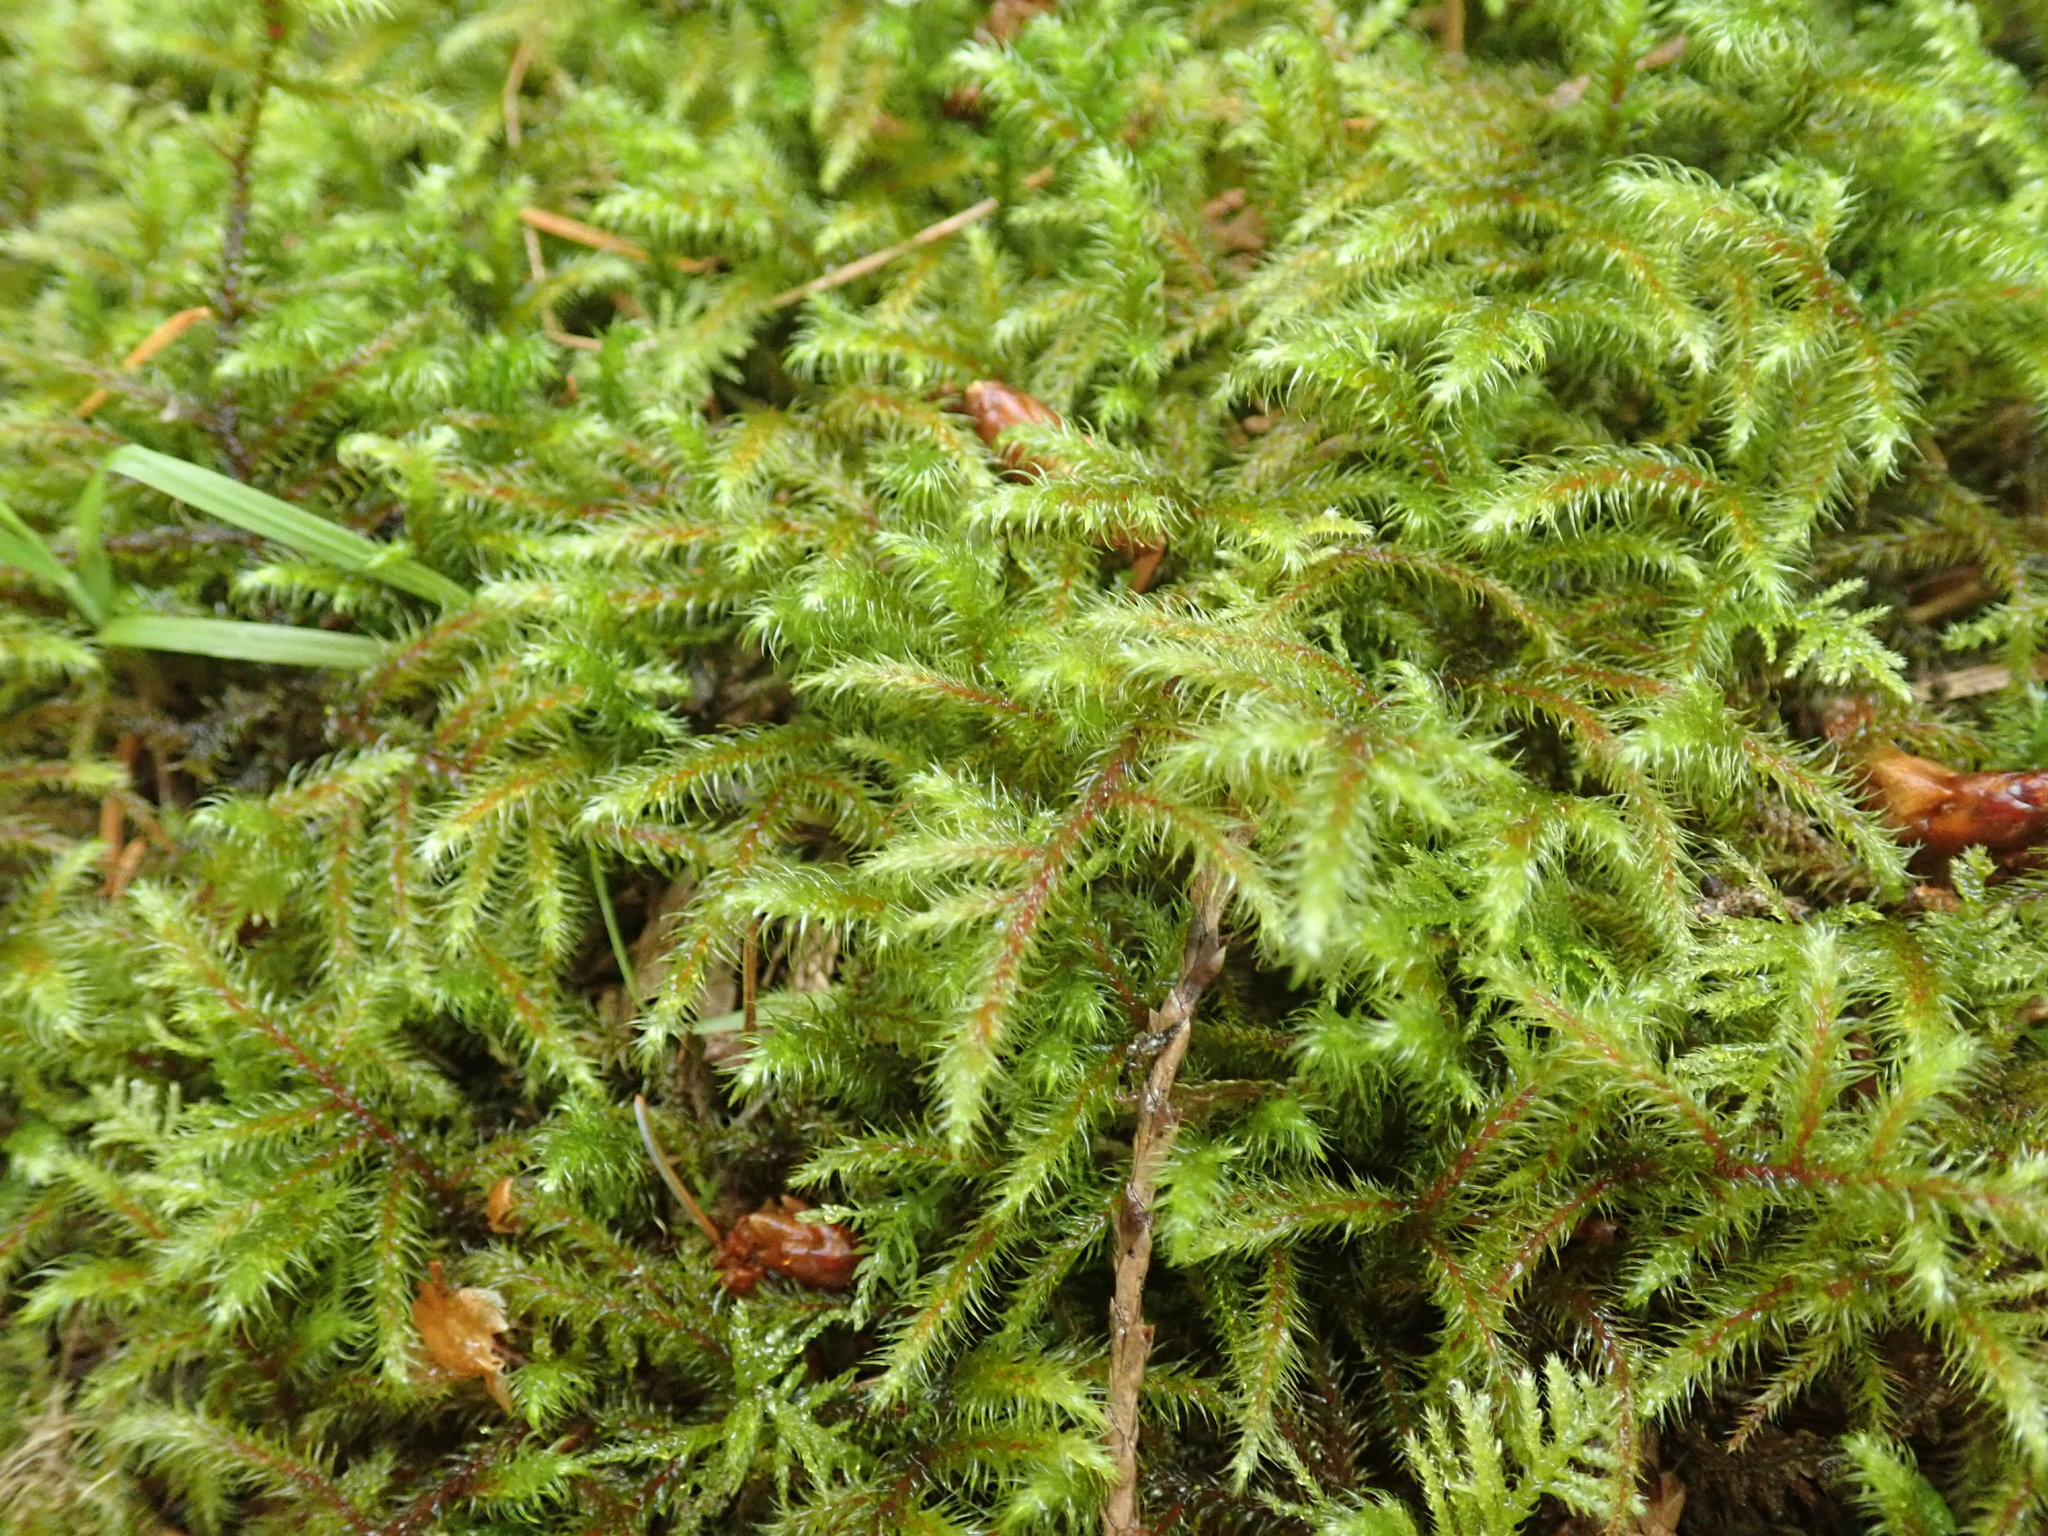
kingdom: Plantae
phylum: Bryophyta
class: Bryopsida
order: Hypnales
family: Hylocomiaceae
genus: Rhytidiadelphus
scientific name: Rhytidiadelphus loreus
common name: Lanky moss
